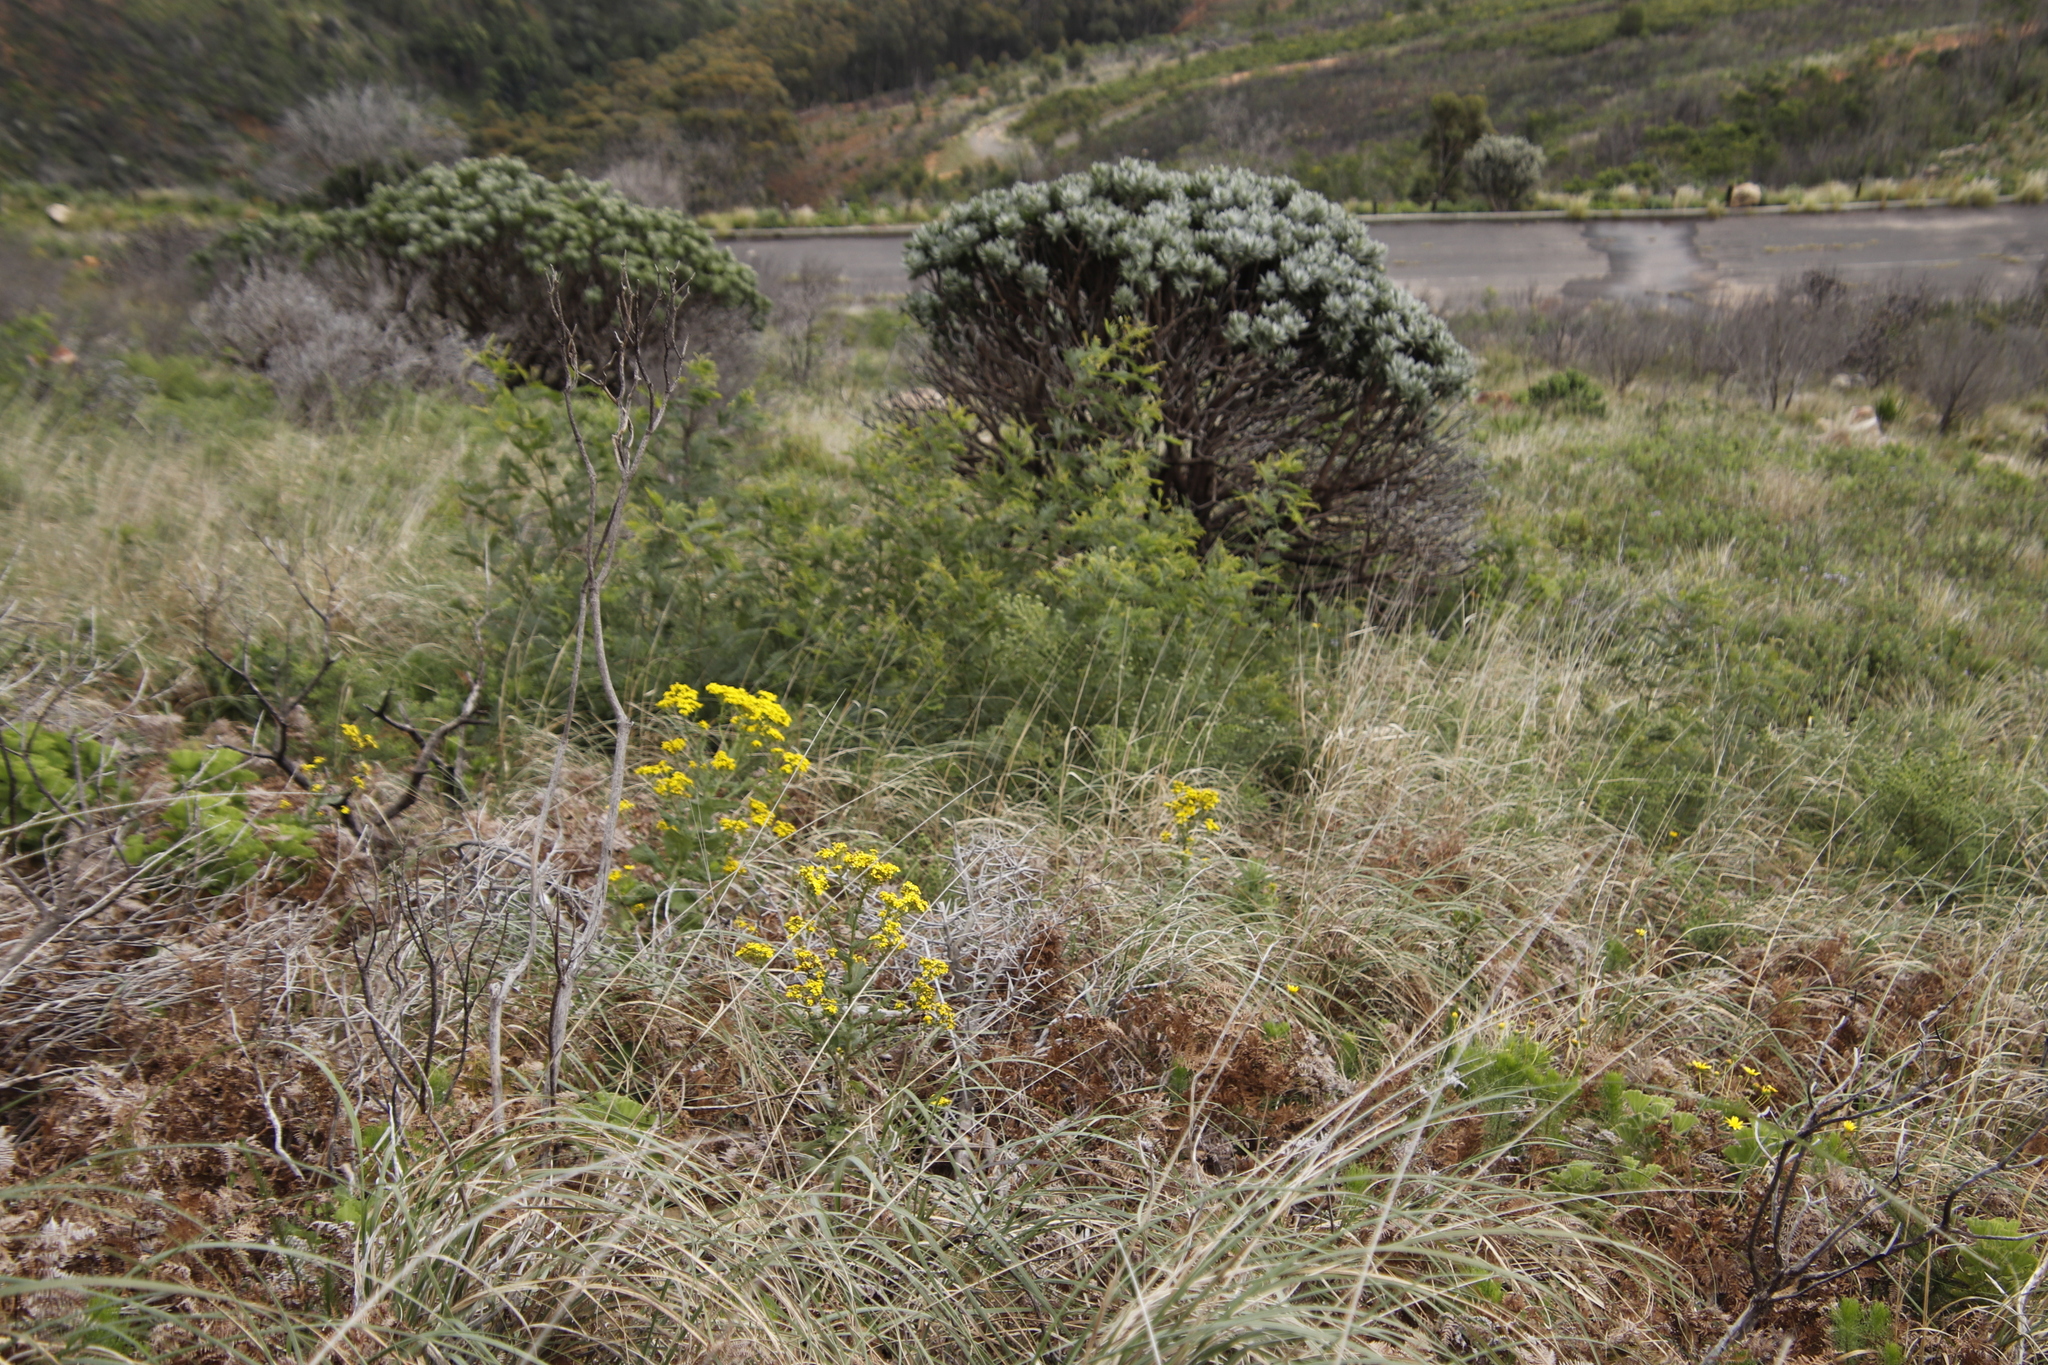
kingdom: Plantae
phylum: Tracheophyta
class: Magnoliopsida
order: Proteales
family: Proteaceae
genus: Leucospermum
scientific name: Leucospermum conocarpodendron
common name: Tree pincushion
